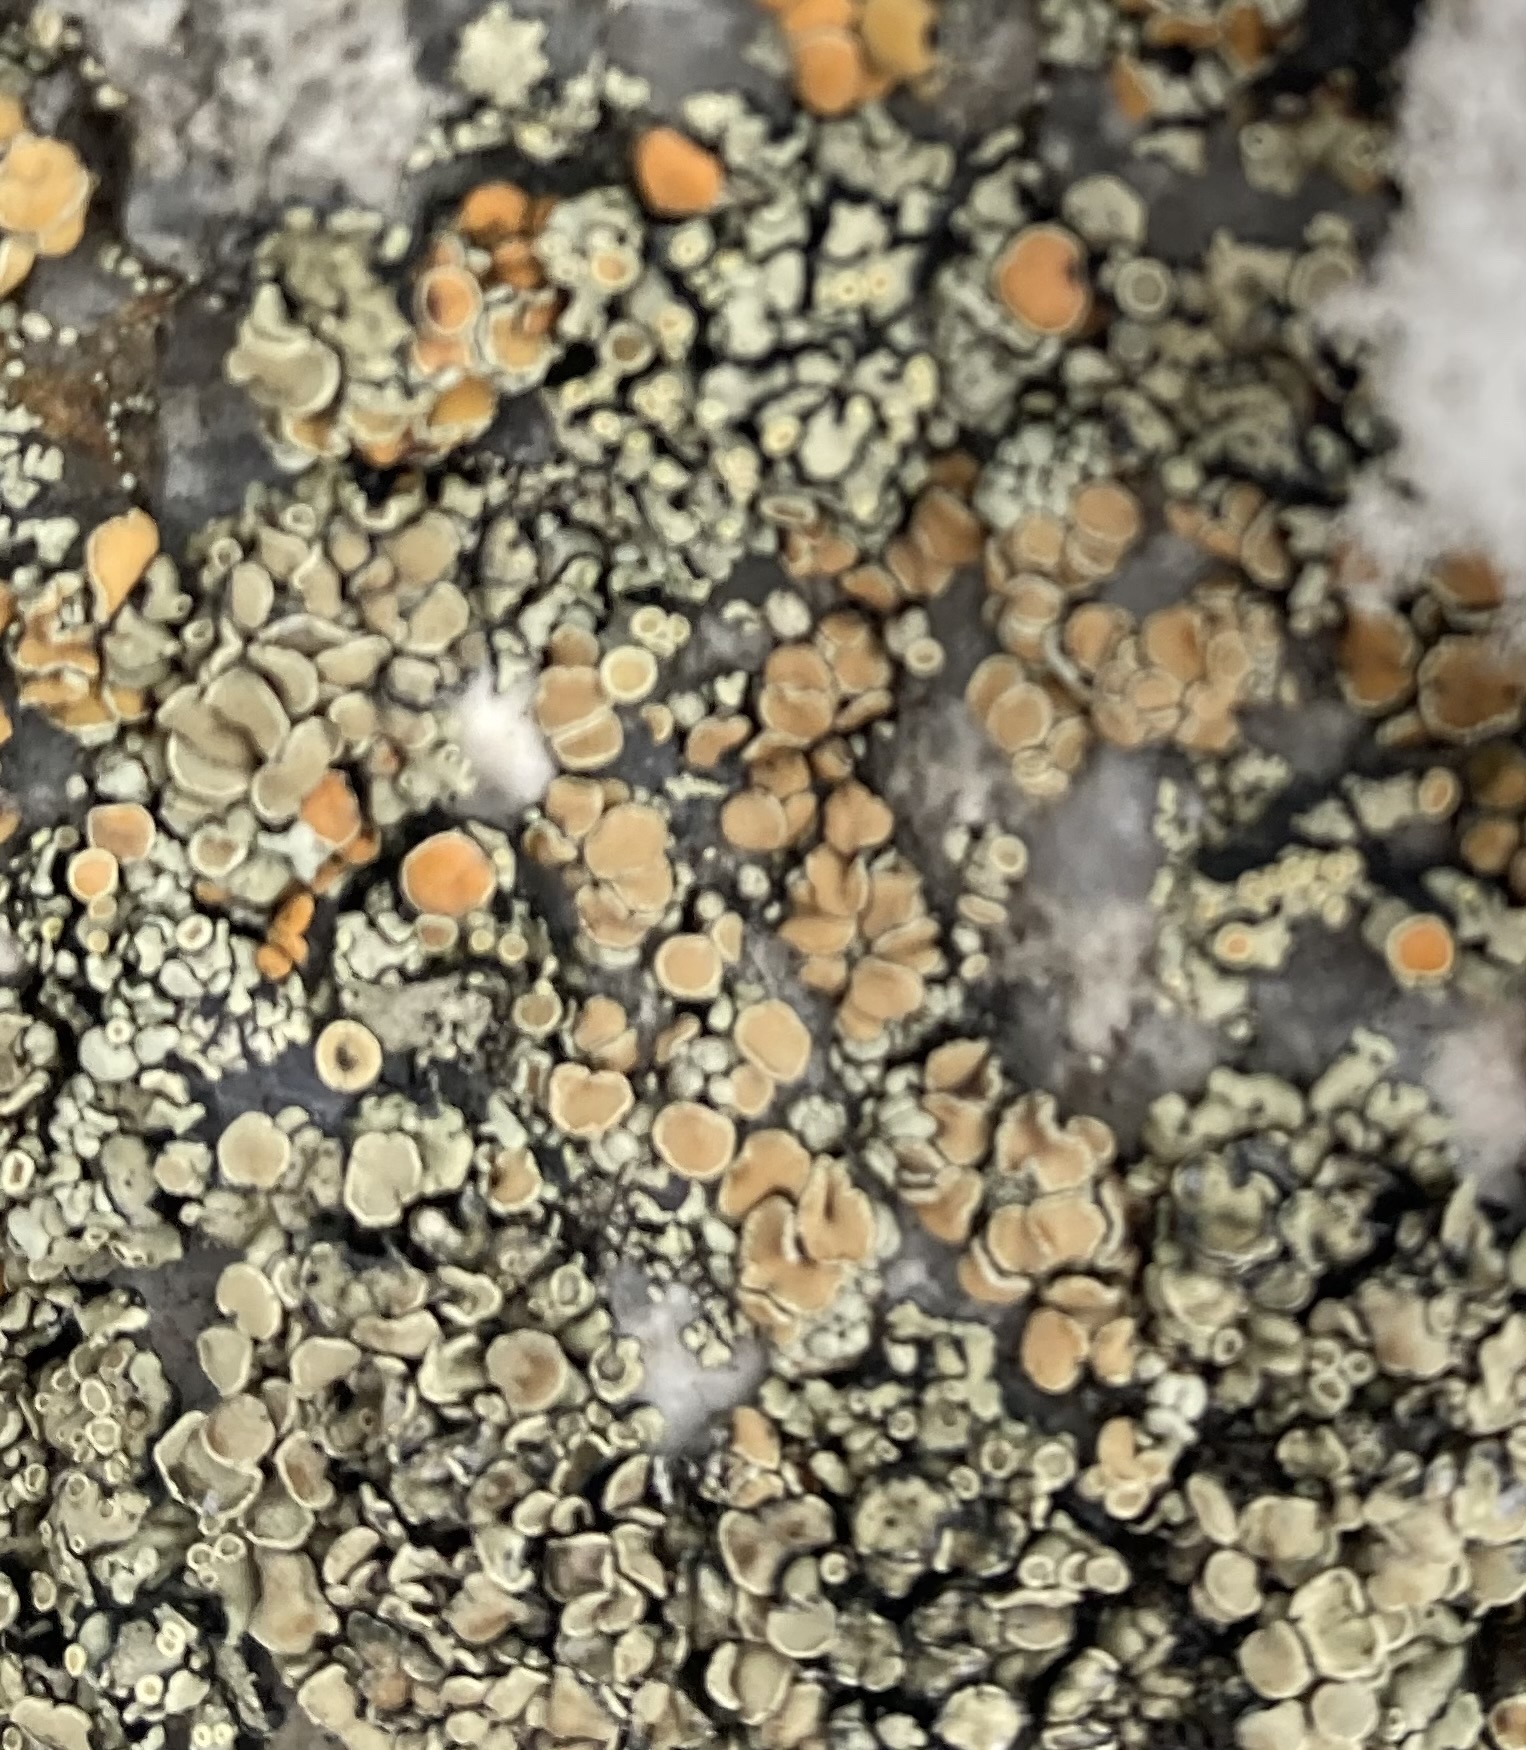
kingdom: Fungi
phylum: Ascomycota
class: Lecanoromycetes
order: Lecanorales
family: Lecanoraceae
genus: Omphalodina
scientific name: Omphalodina chrysoleuca
